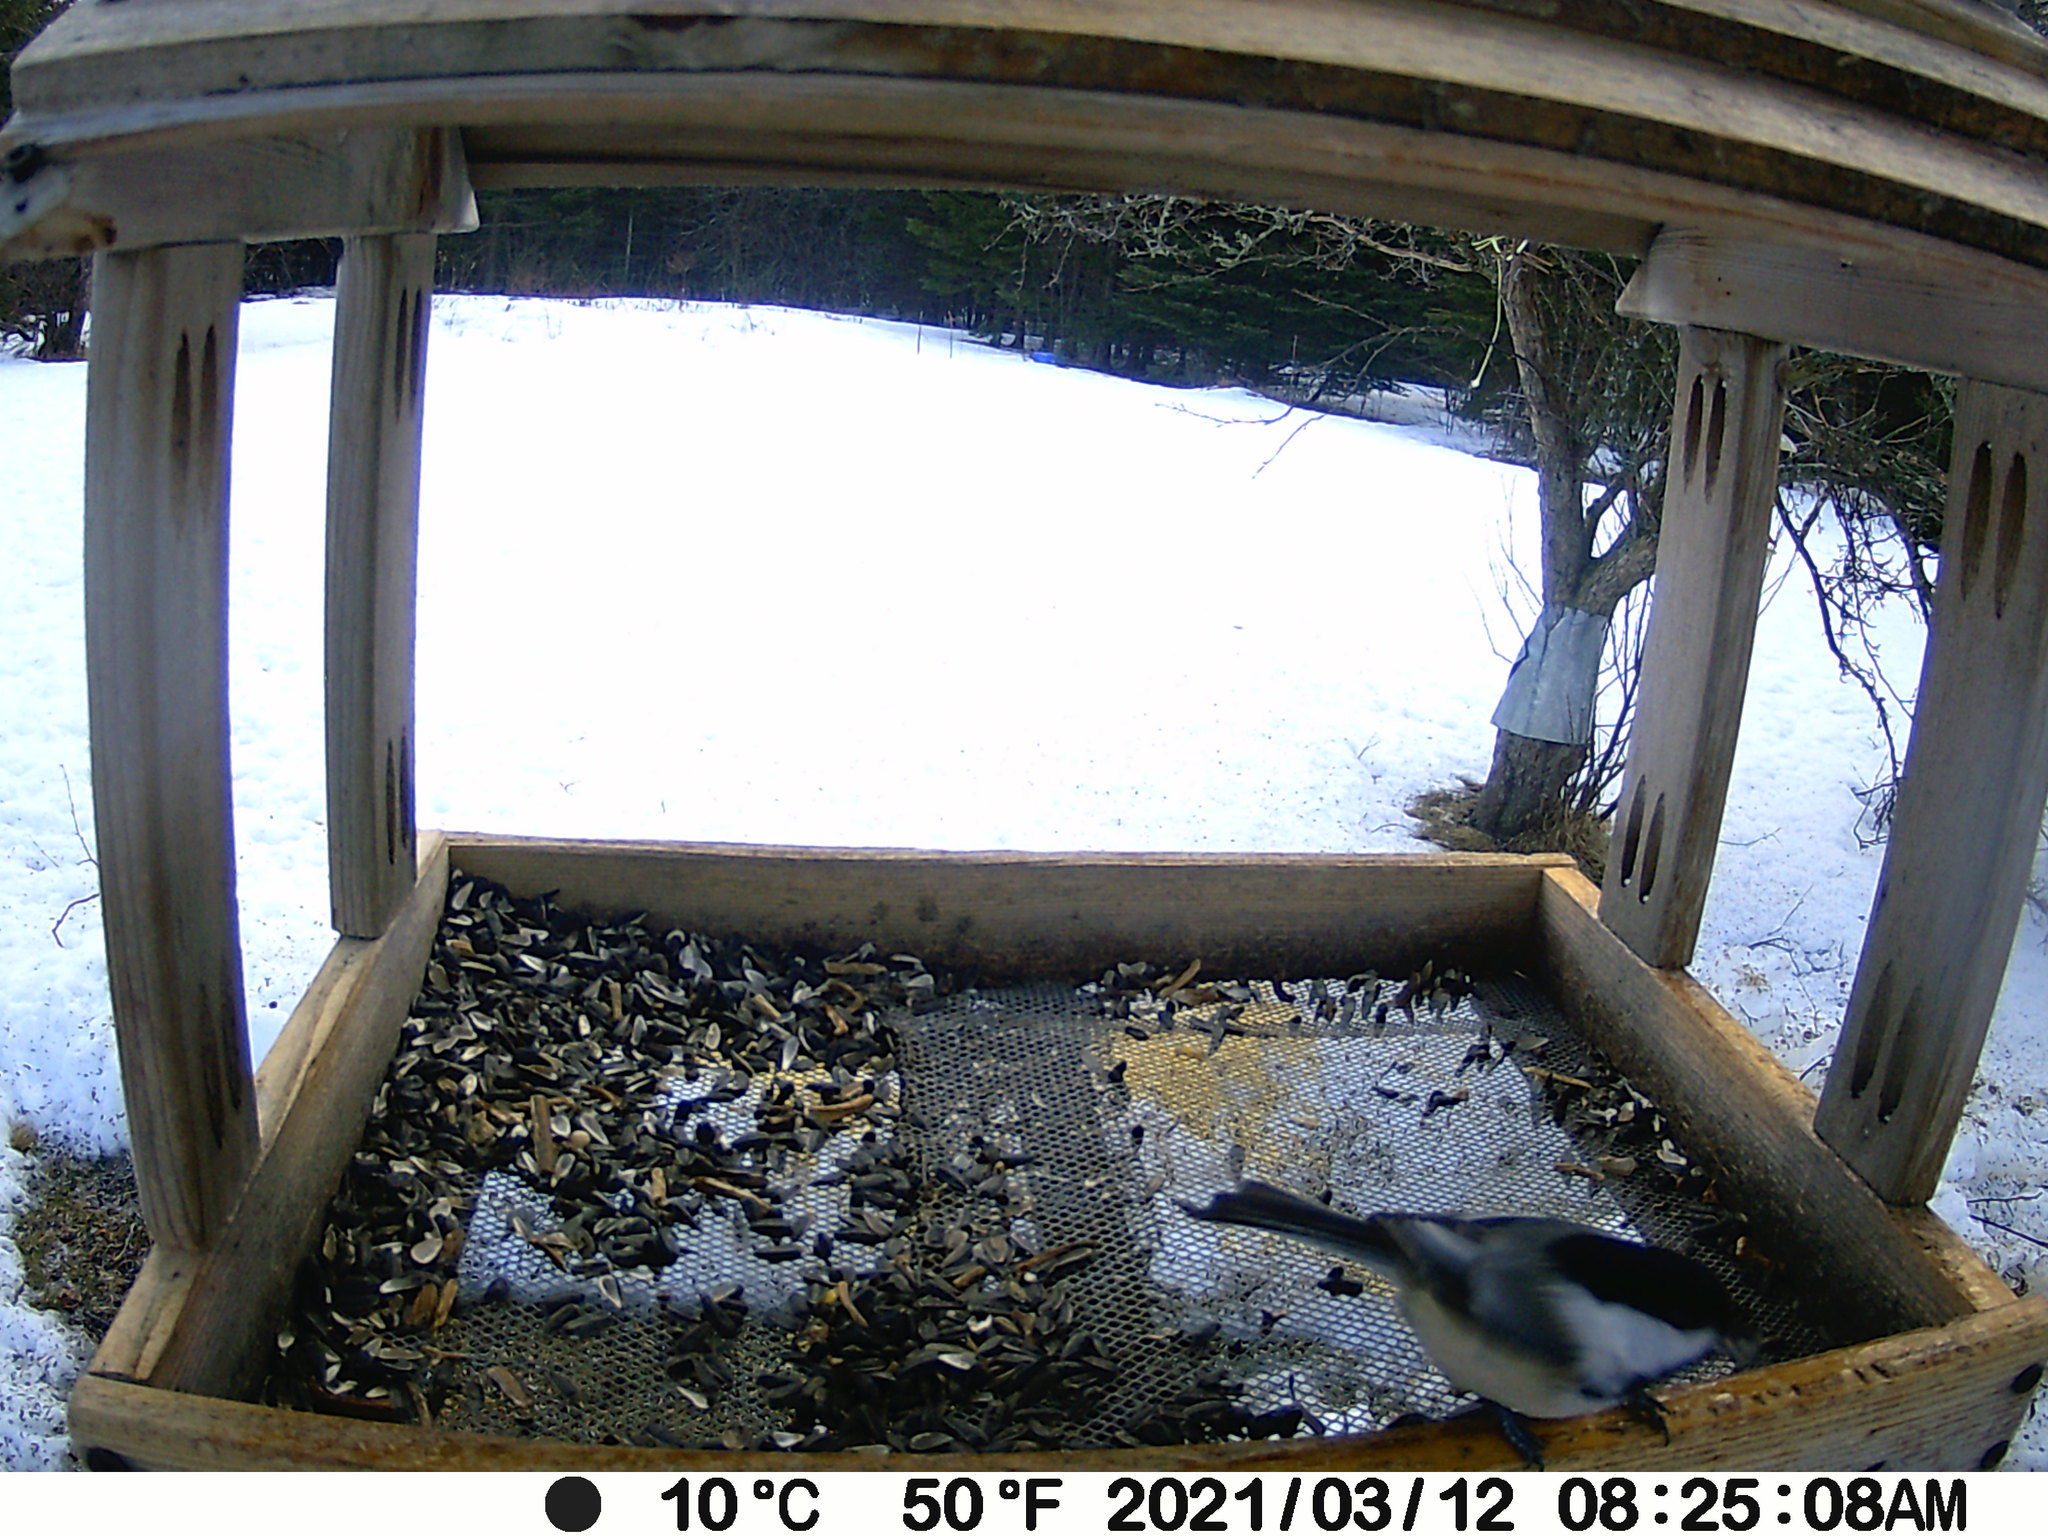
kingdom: Animalia
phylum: Chordata
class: Aves
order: Passeriformes
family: Paridae
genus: Poecile
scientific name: Poecile atricapillus
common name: Black-capped chickadee
